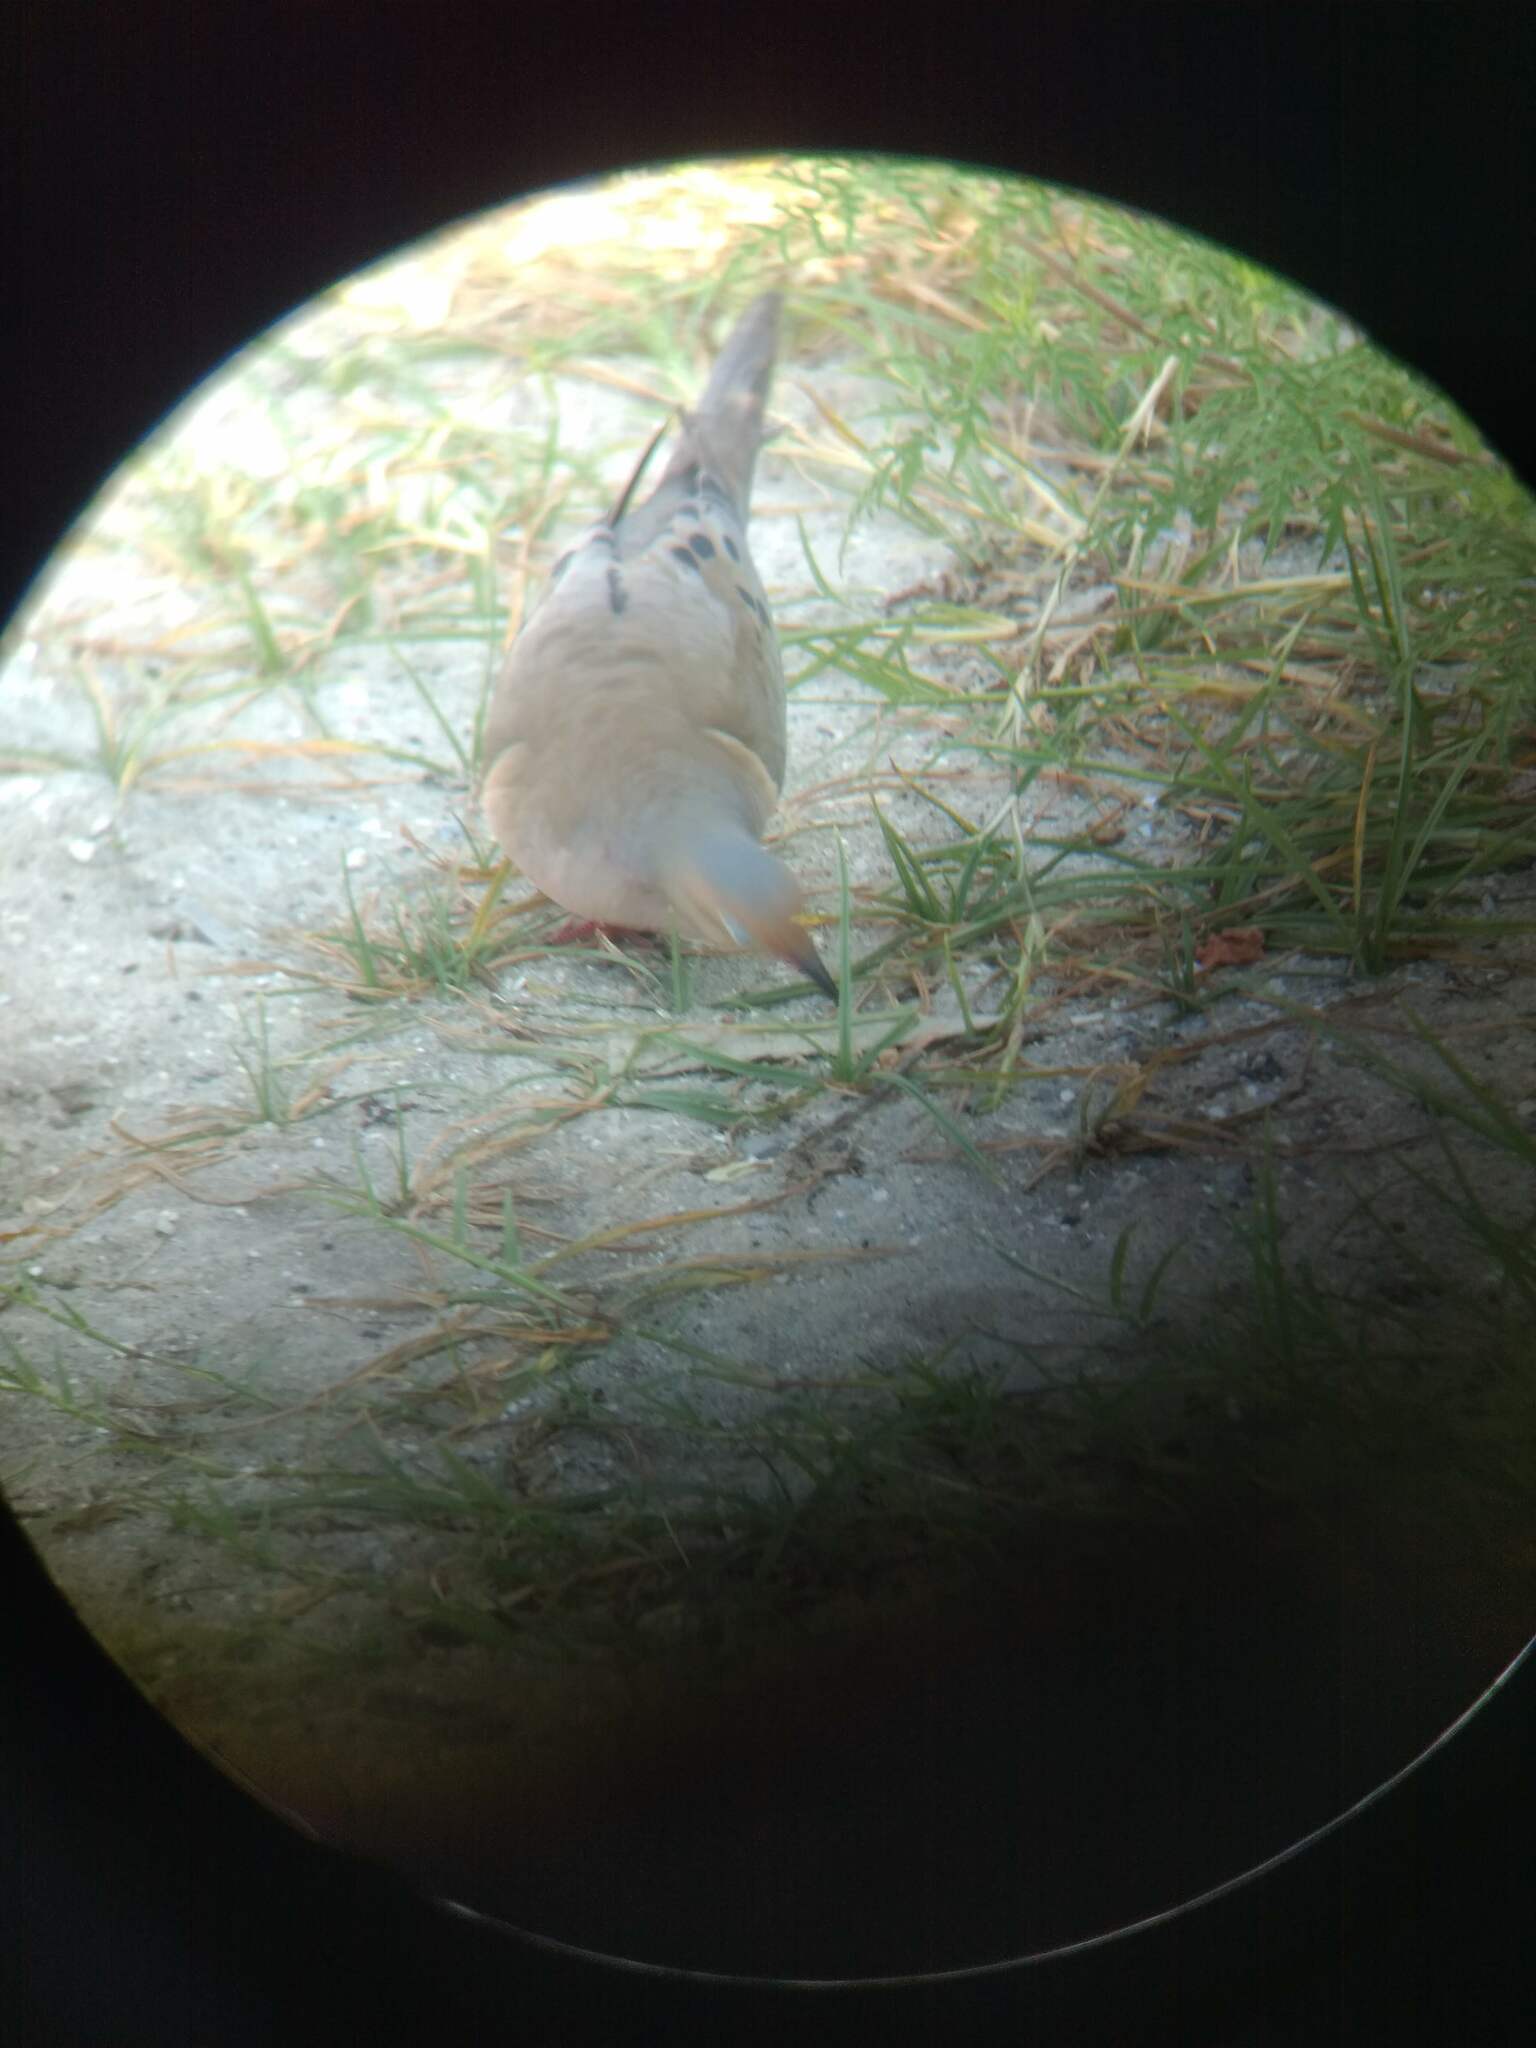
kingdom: Animalia
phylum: Chordata
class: Aves
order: Columbiformes
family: Columbidae
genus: Zenaida
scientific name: Zenaida macroura
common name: Mourning dove
